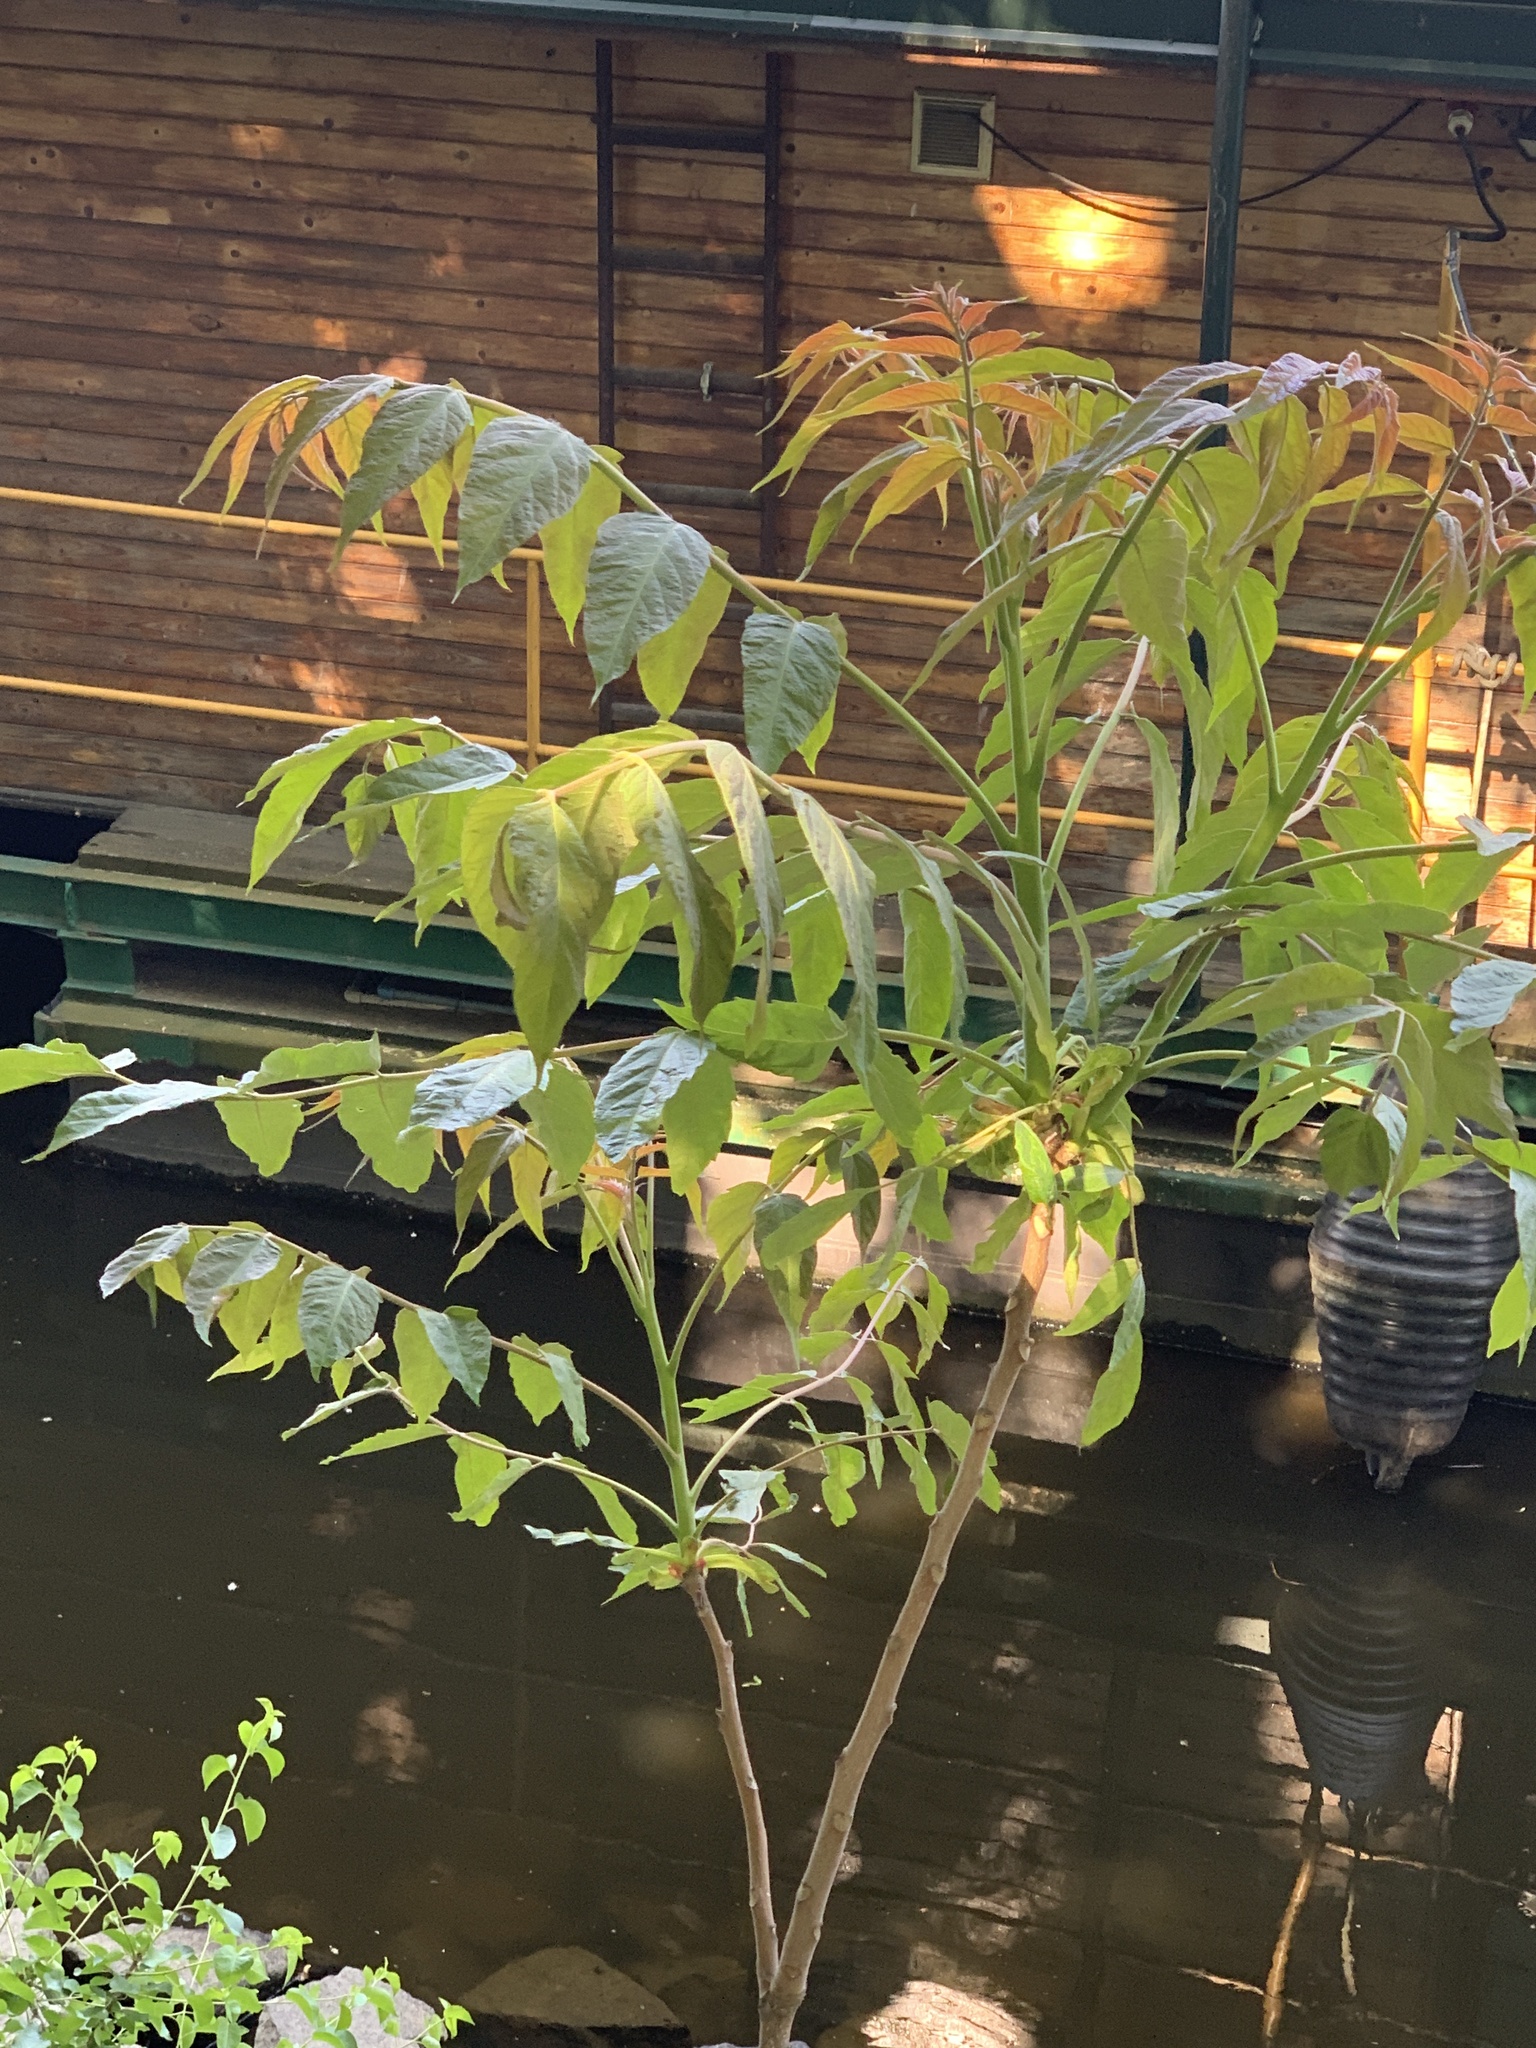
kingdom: Plantae
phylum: Tracheophyta
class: Magnoliopsida
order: Sapindales
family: Simaroubaceae
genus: Ailanthus
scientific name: Ailanthus altissima
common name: Tree-of-heaven
